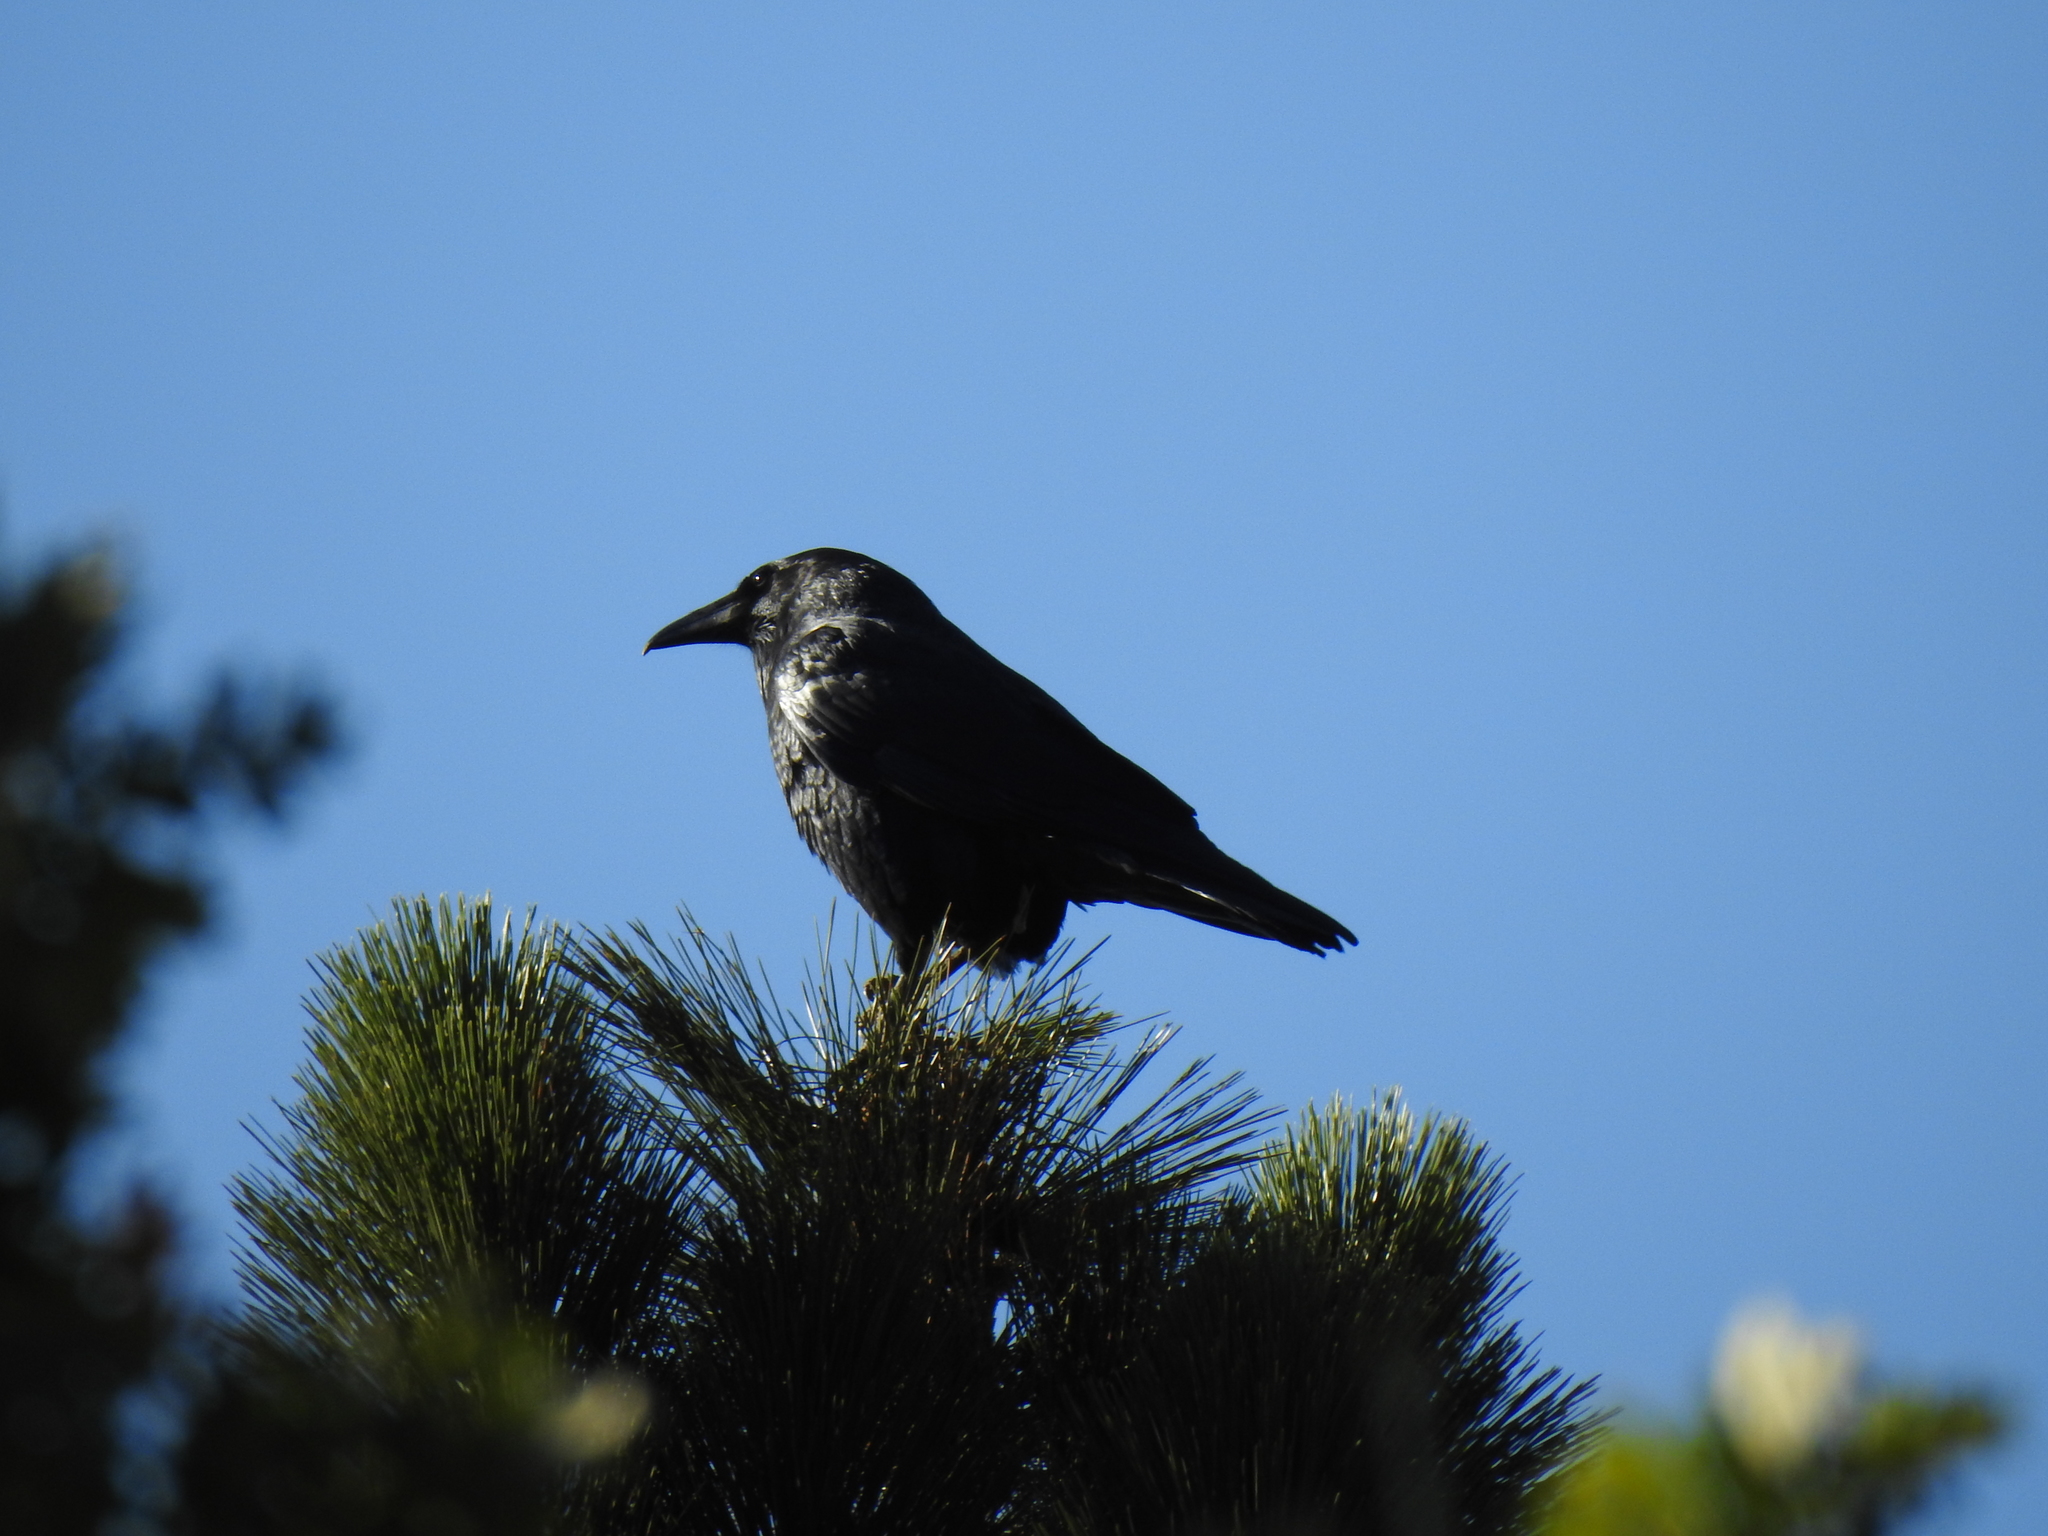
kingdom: Animalia
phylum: Chordata
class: Aves
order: Passeriformes
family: Corvidae
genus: Corvus
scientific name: Corvus corax
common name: Common raven
